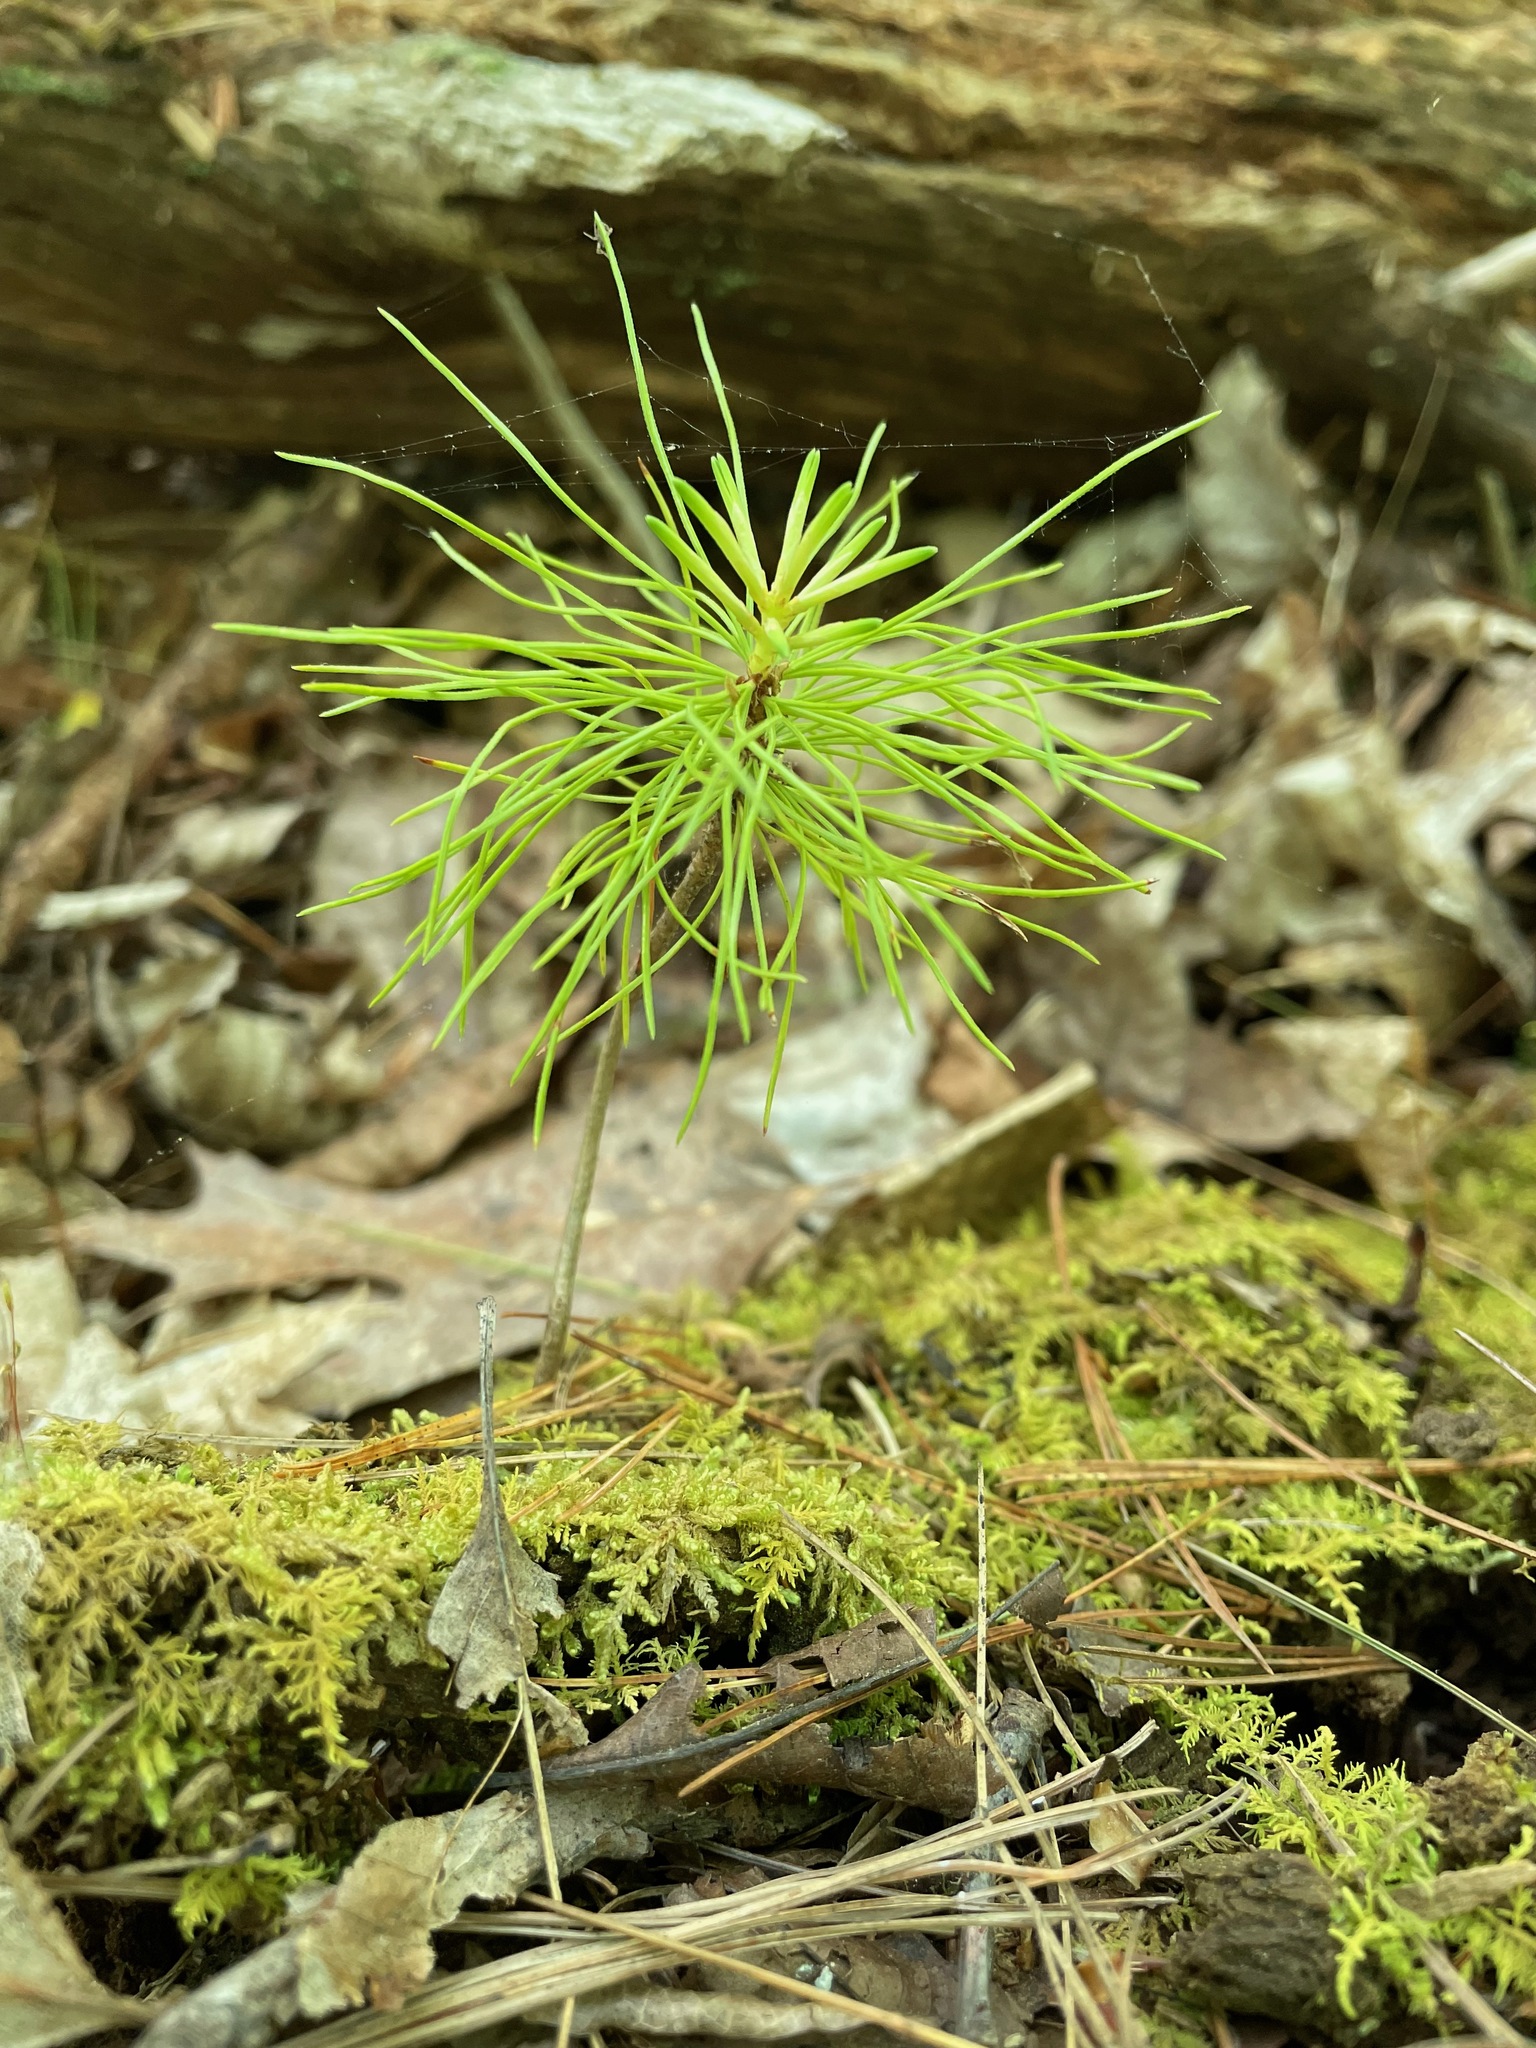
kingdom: Plantae
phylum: Tracheophyta
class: Pinopsida
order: Pinales
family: Pinaceae
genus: Pinus
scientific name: Pinus strobus
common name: Weymouth pine
